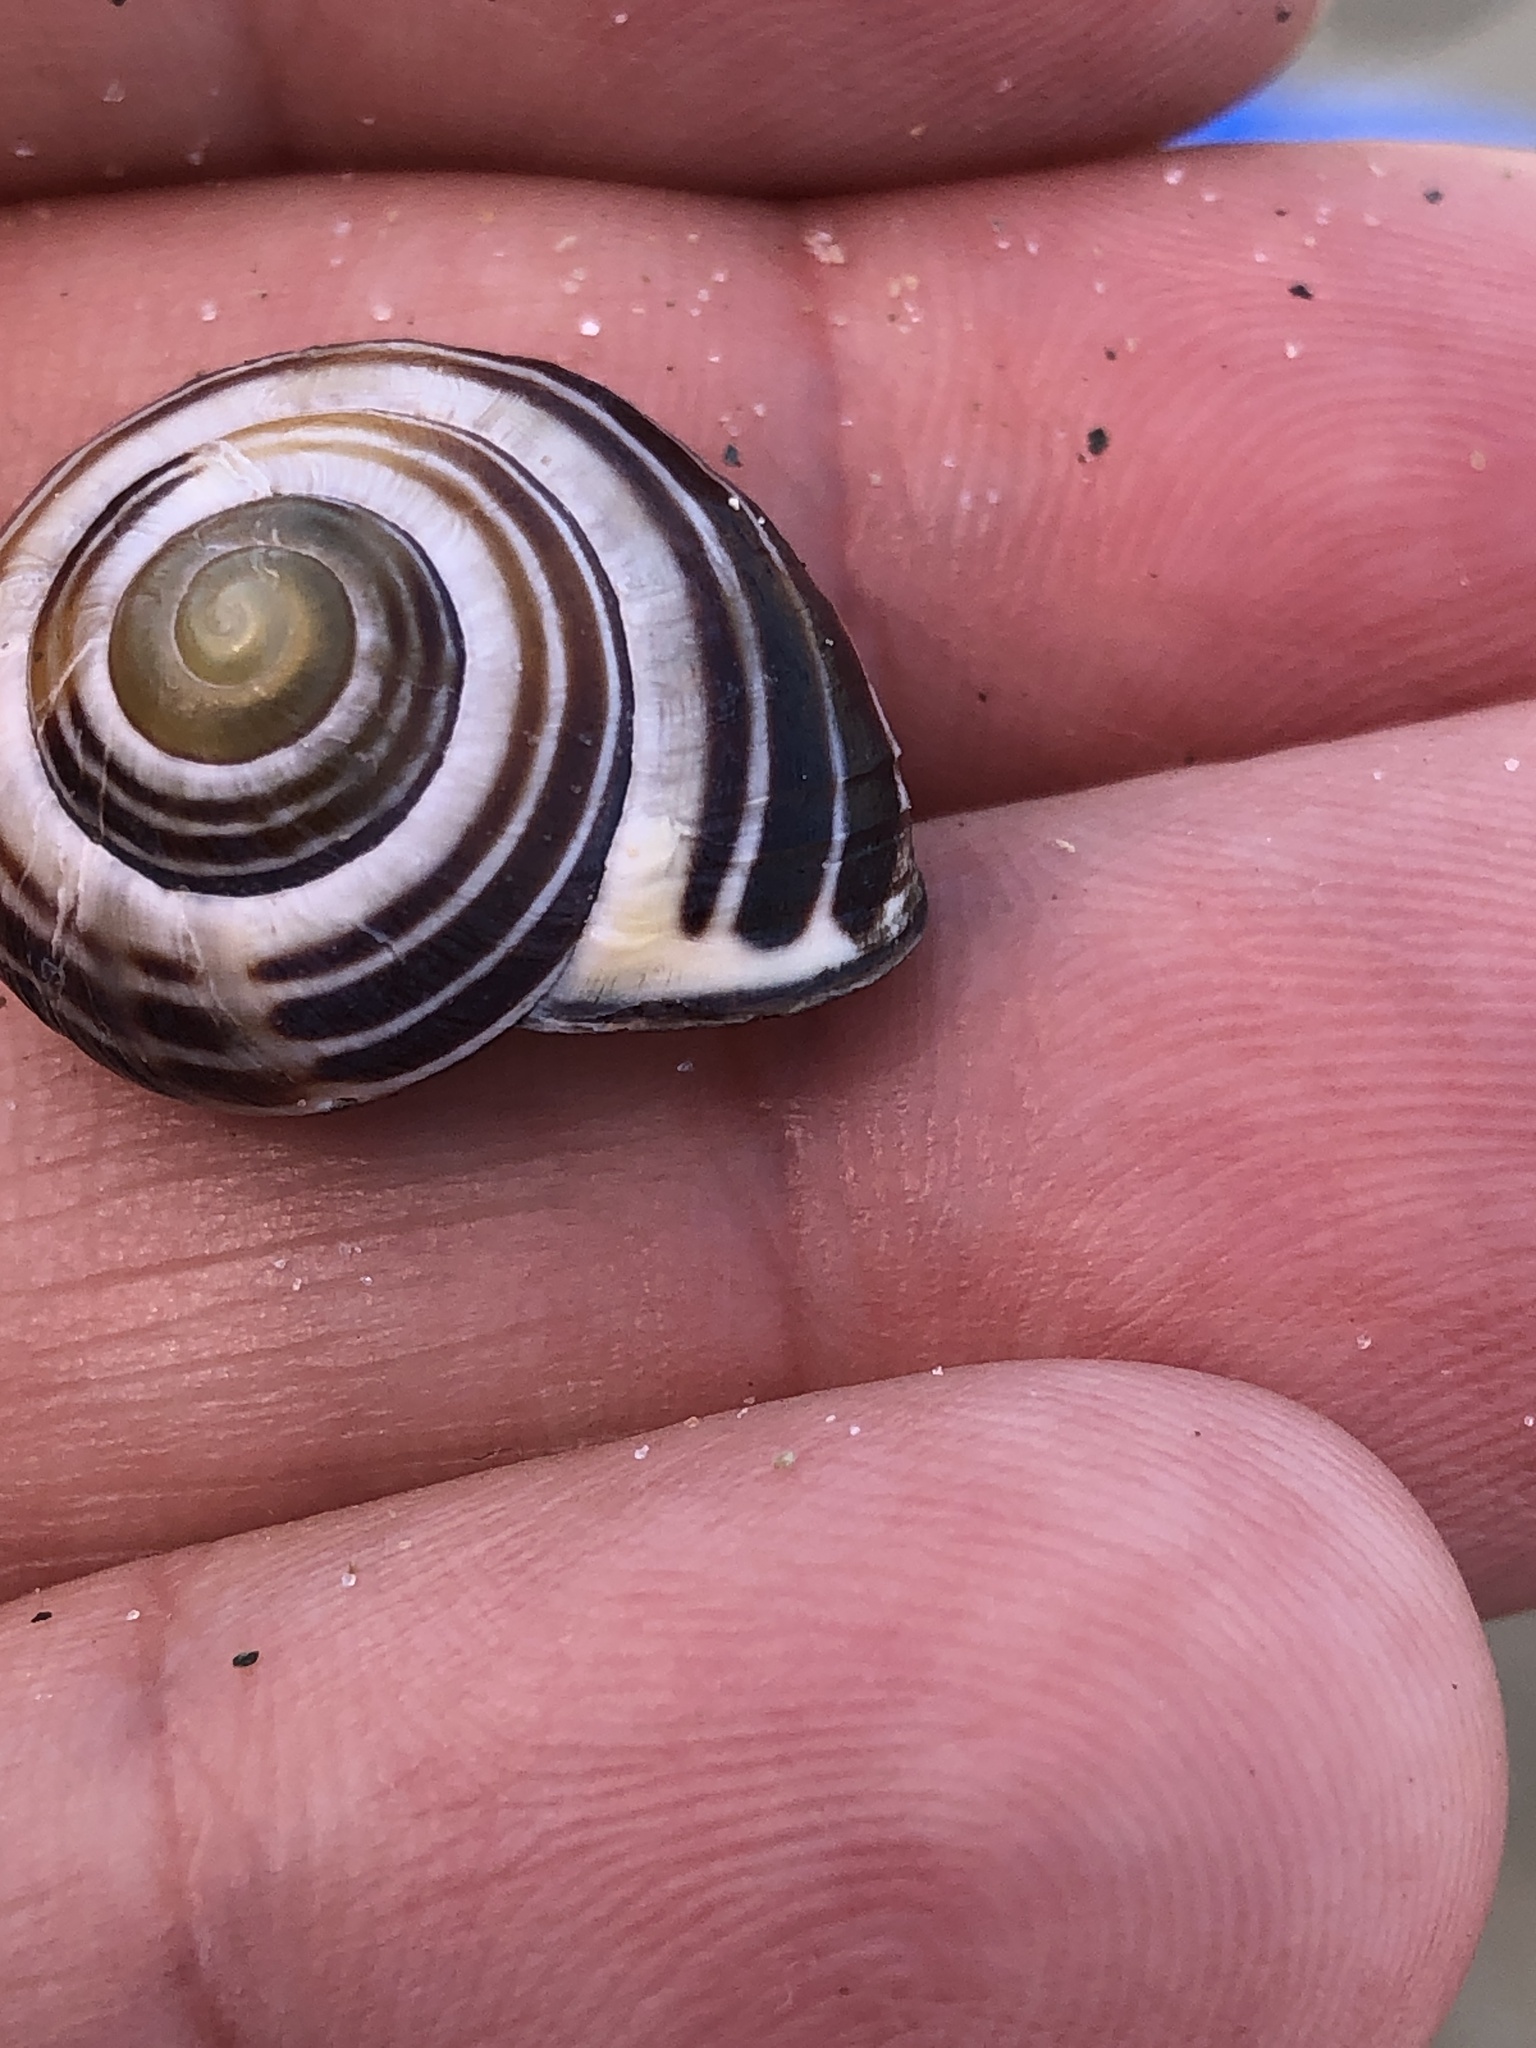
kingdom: Animalia
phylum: Mollusca
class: Gastropoda
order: Stylommatophora
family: Helicidae
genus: Cepaea
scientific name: Cepaea nemoralis
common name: Grovesnail
